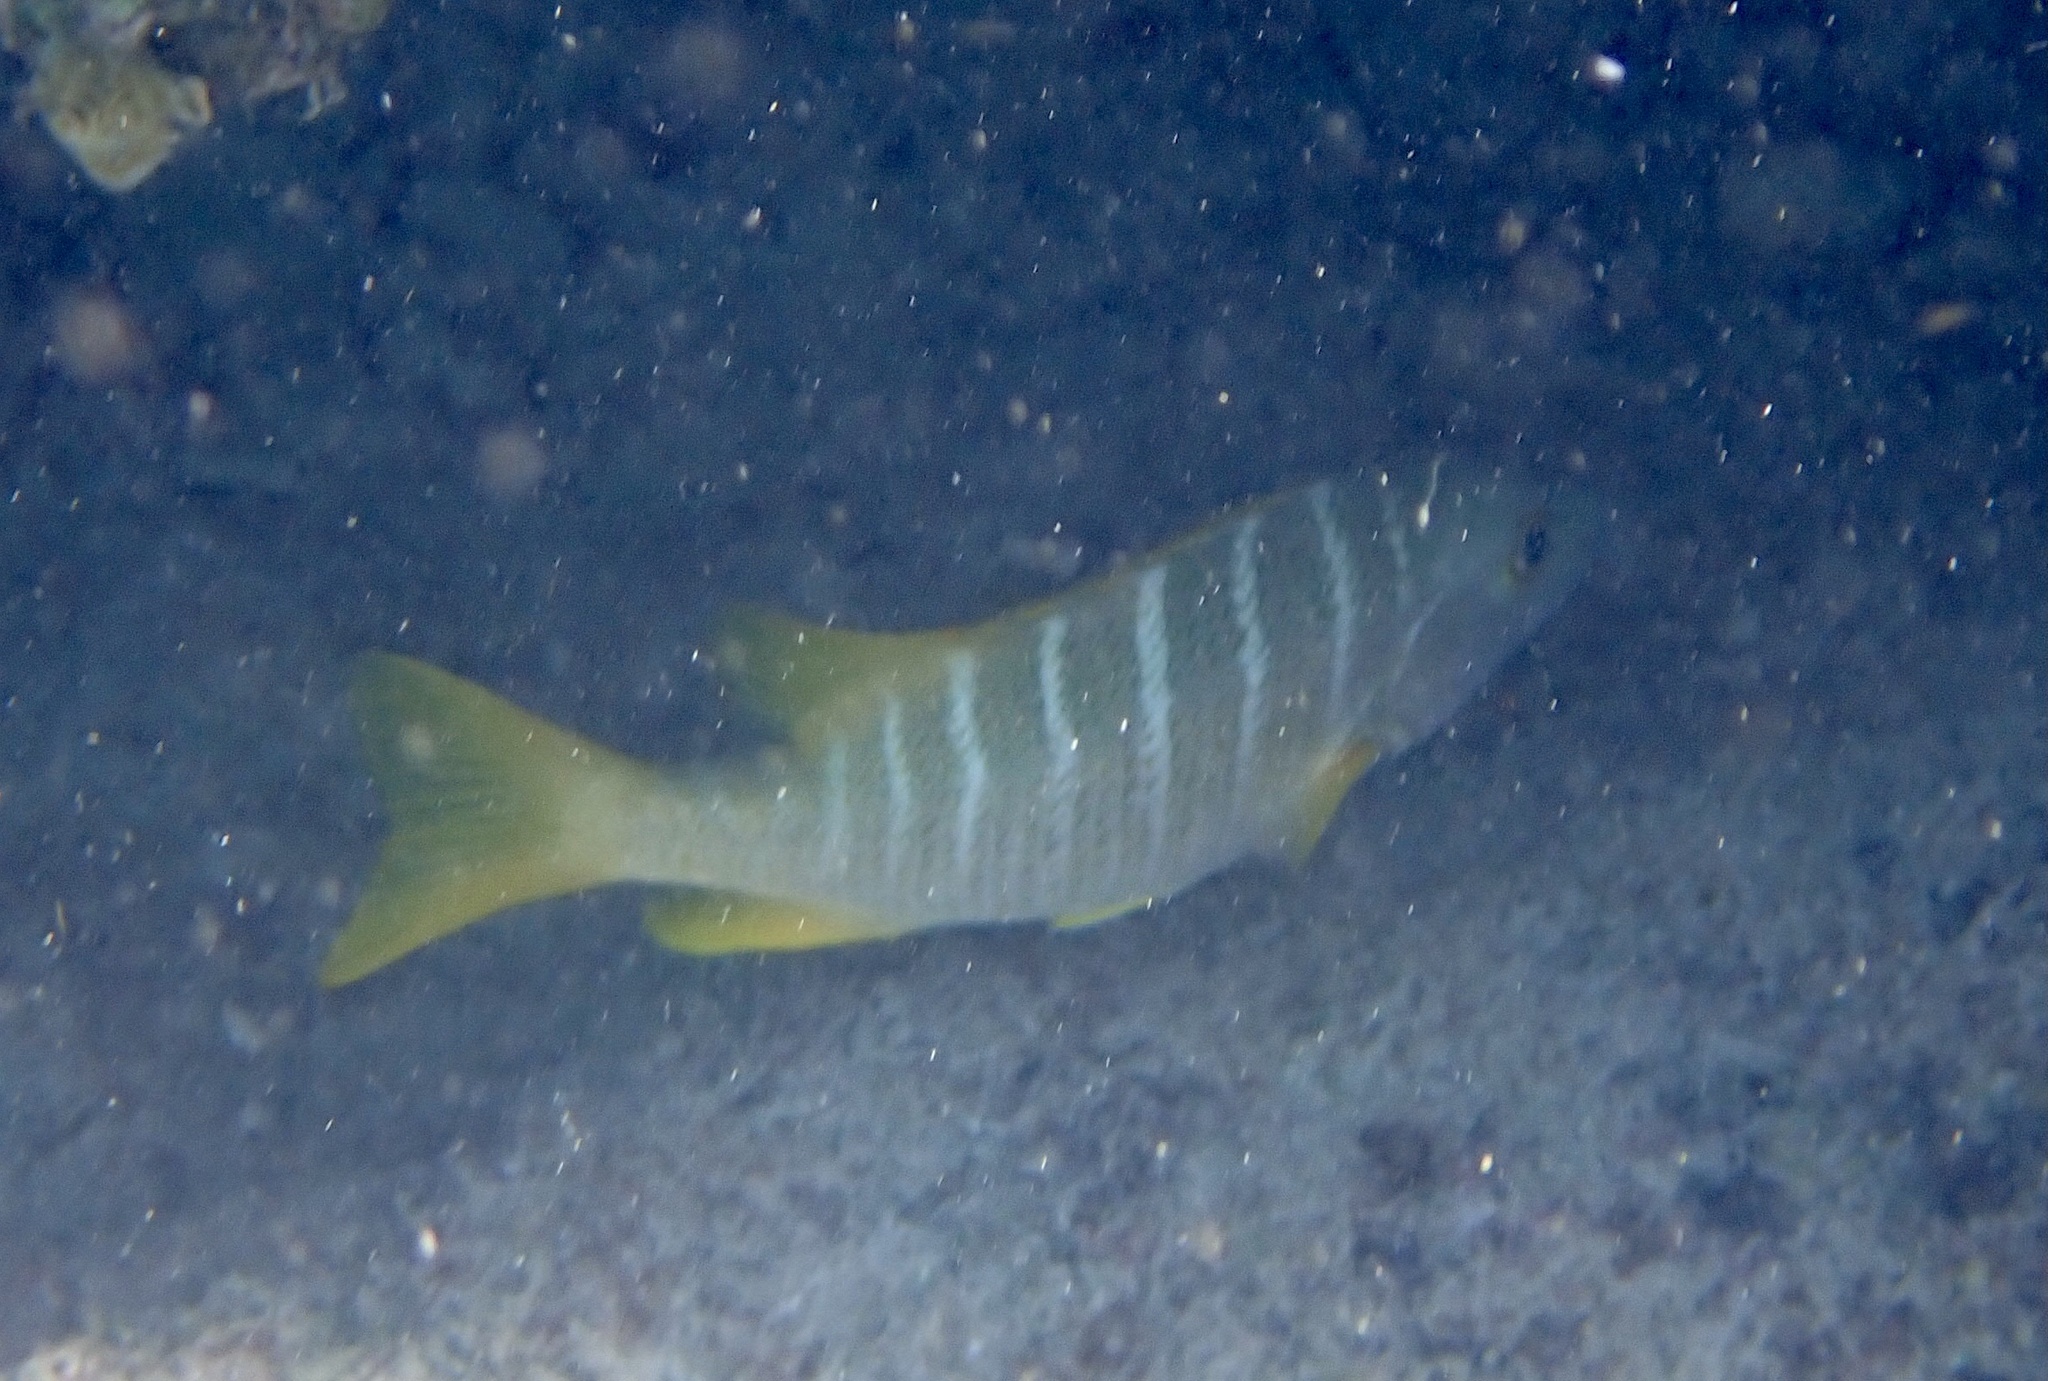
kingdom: Animalia
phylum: Chordata
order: Perciformes
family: Lutjanidae
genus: Lutjanus
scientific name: Lutjanus apodus
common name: Schoolmaster
